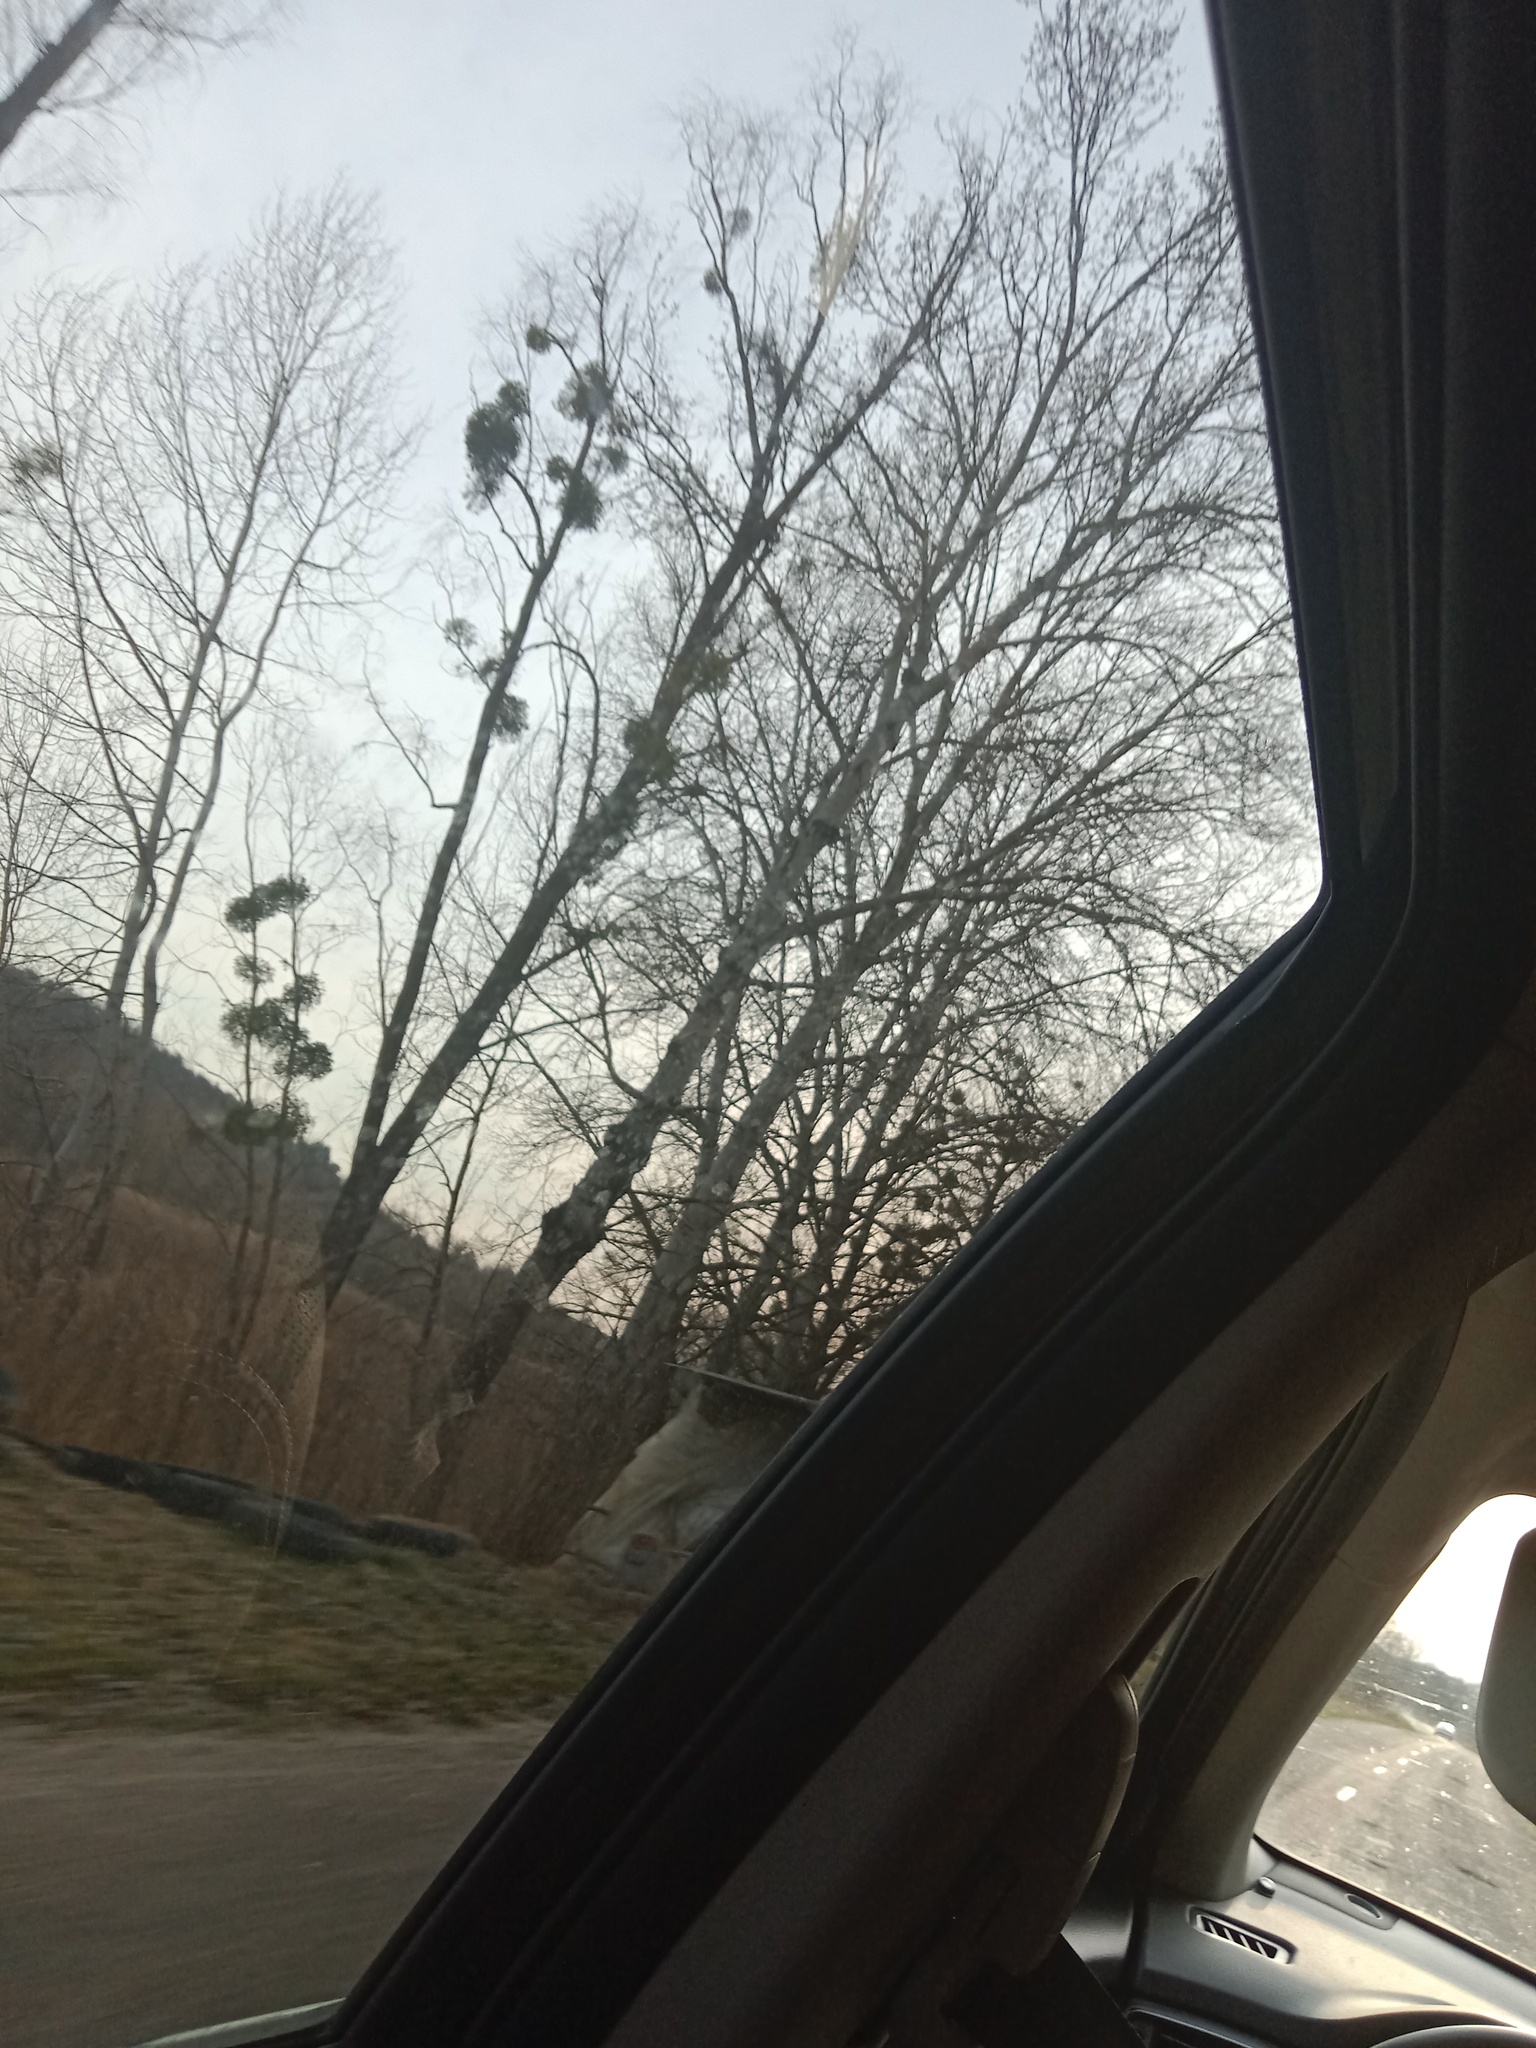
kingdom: Plantae
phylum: Tracheophyta
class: Magnoliopsida
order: Santalales
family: Viscaceae
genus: Viscum
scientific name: Viscum album
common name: Mistletoe
